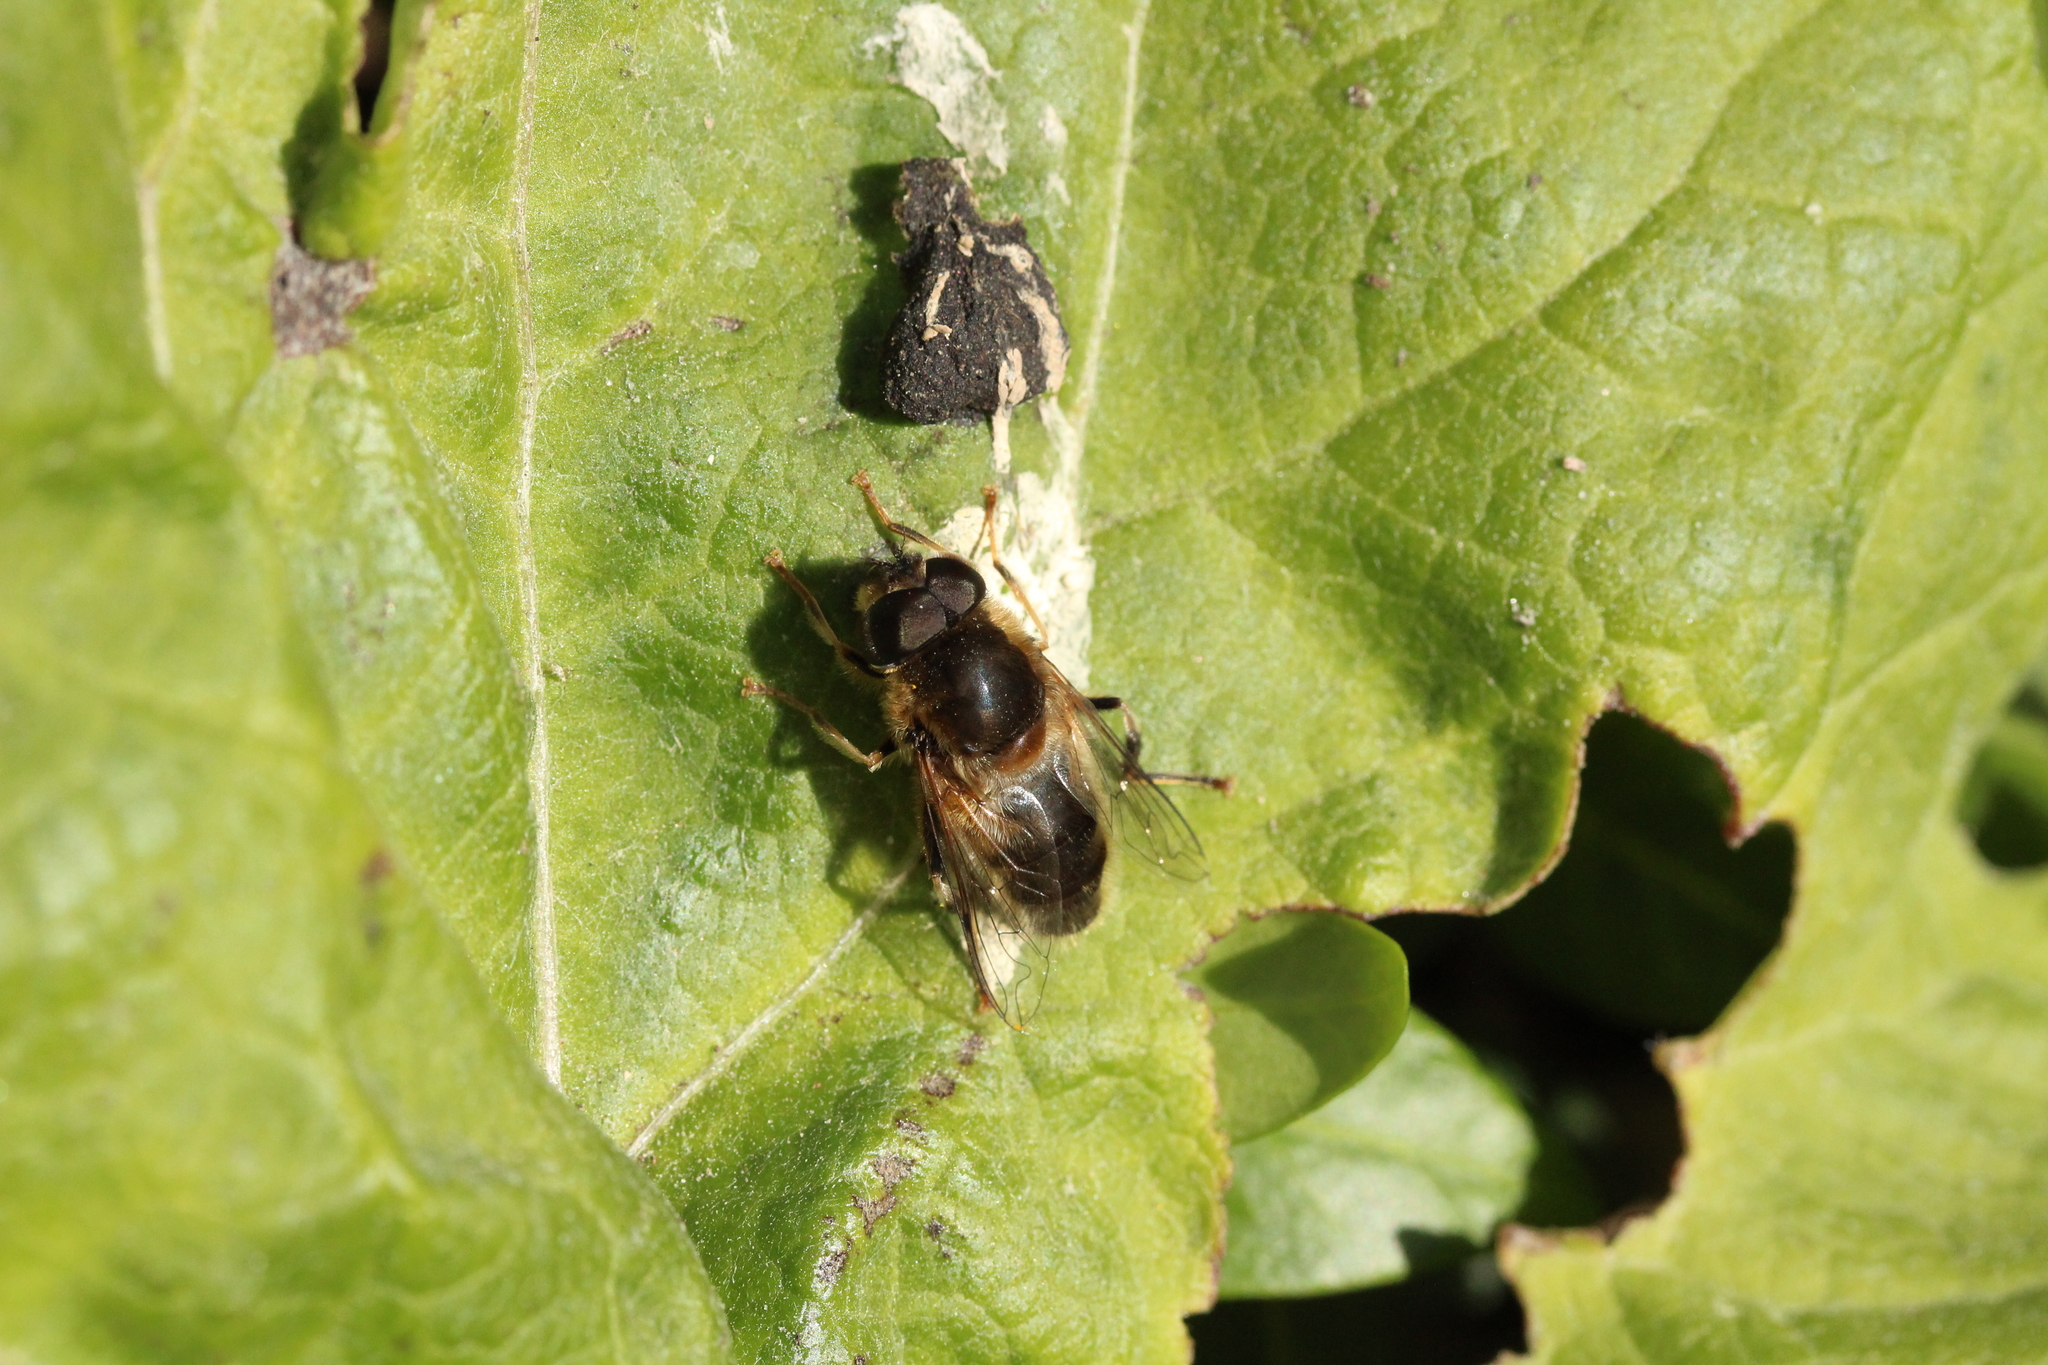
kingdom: Animalia
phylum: Arthropoda
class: Insecta
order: Diptera
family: Syrphidae
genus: Eristalis
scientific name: Eristalis pertinax
